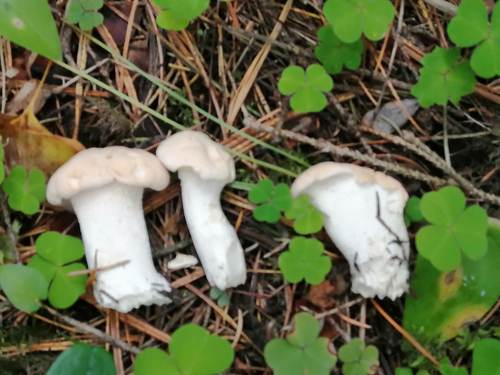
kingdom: Fungi
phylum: Basidiomycota
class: Agaricomycetes
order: Cantharellales
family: Hydnaceae
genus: Hydnum
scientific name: Hydnum repandum
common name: Wood hedgehog
